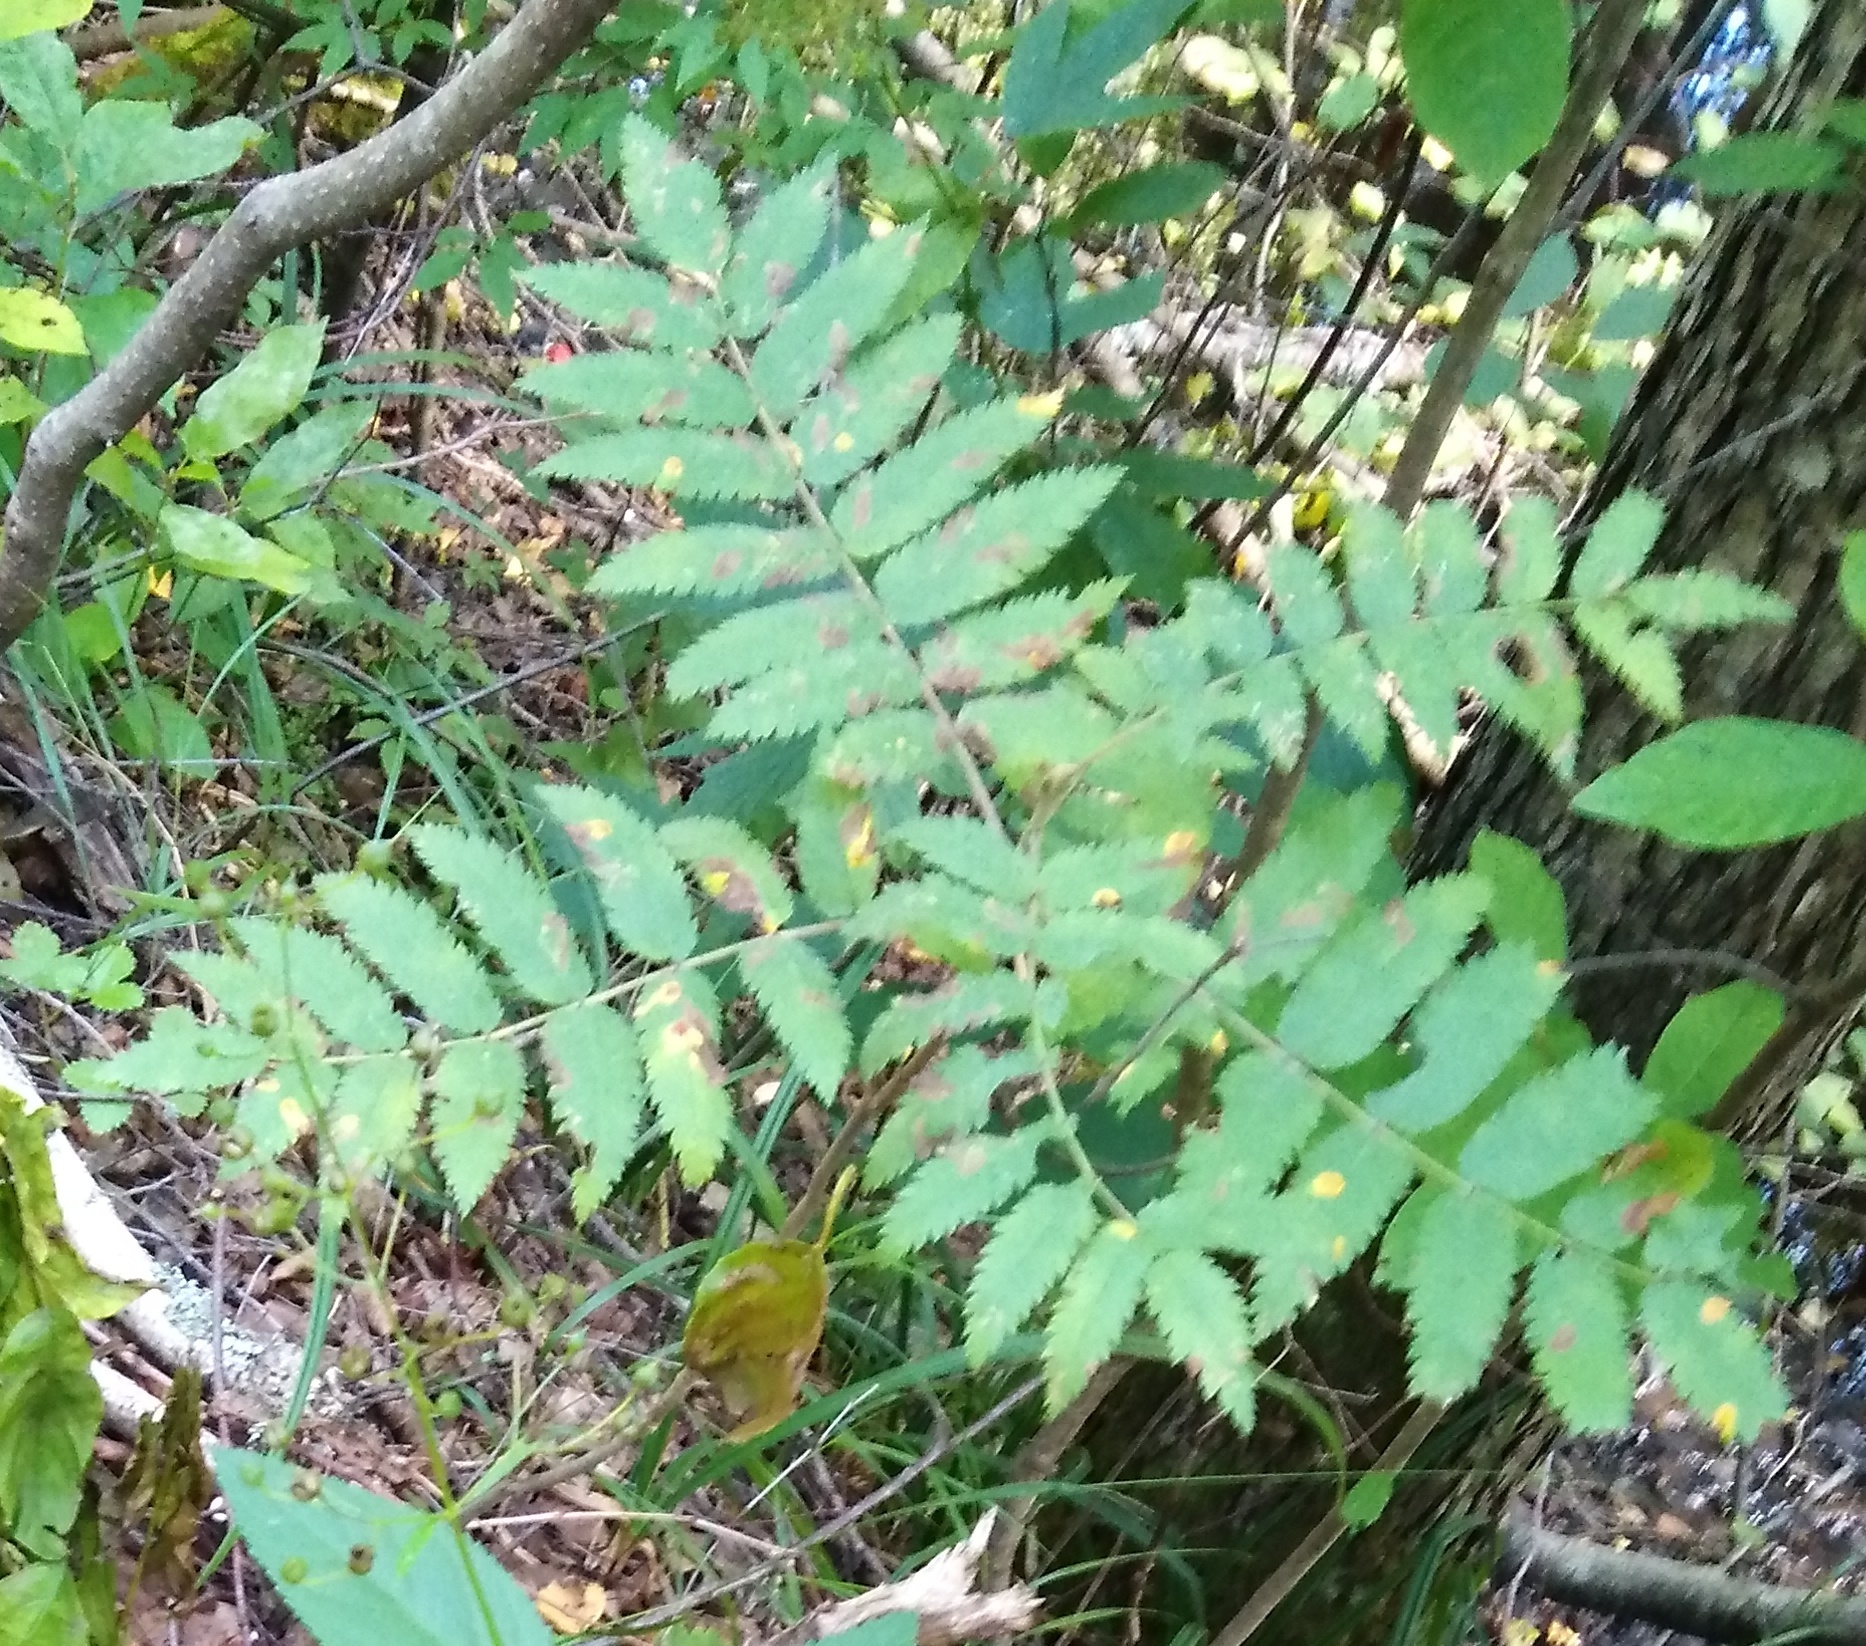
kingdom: Plantae
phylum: Tracheophyta
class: Magnoliopsida
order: Rosales
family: Rosaceae
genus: Sorbus
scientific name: Sorbus aucuparia
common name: Rowan
